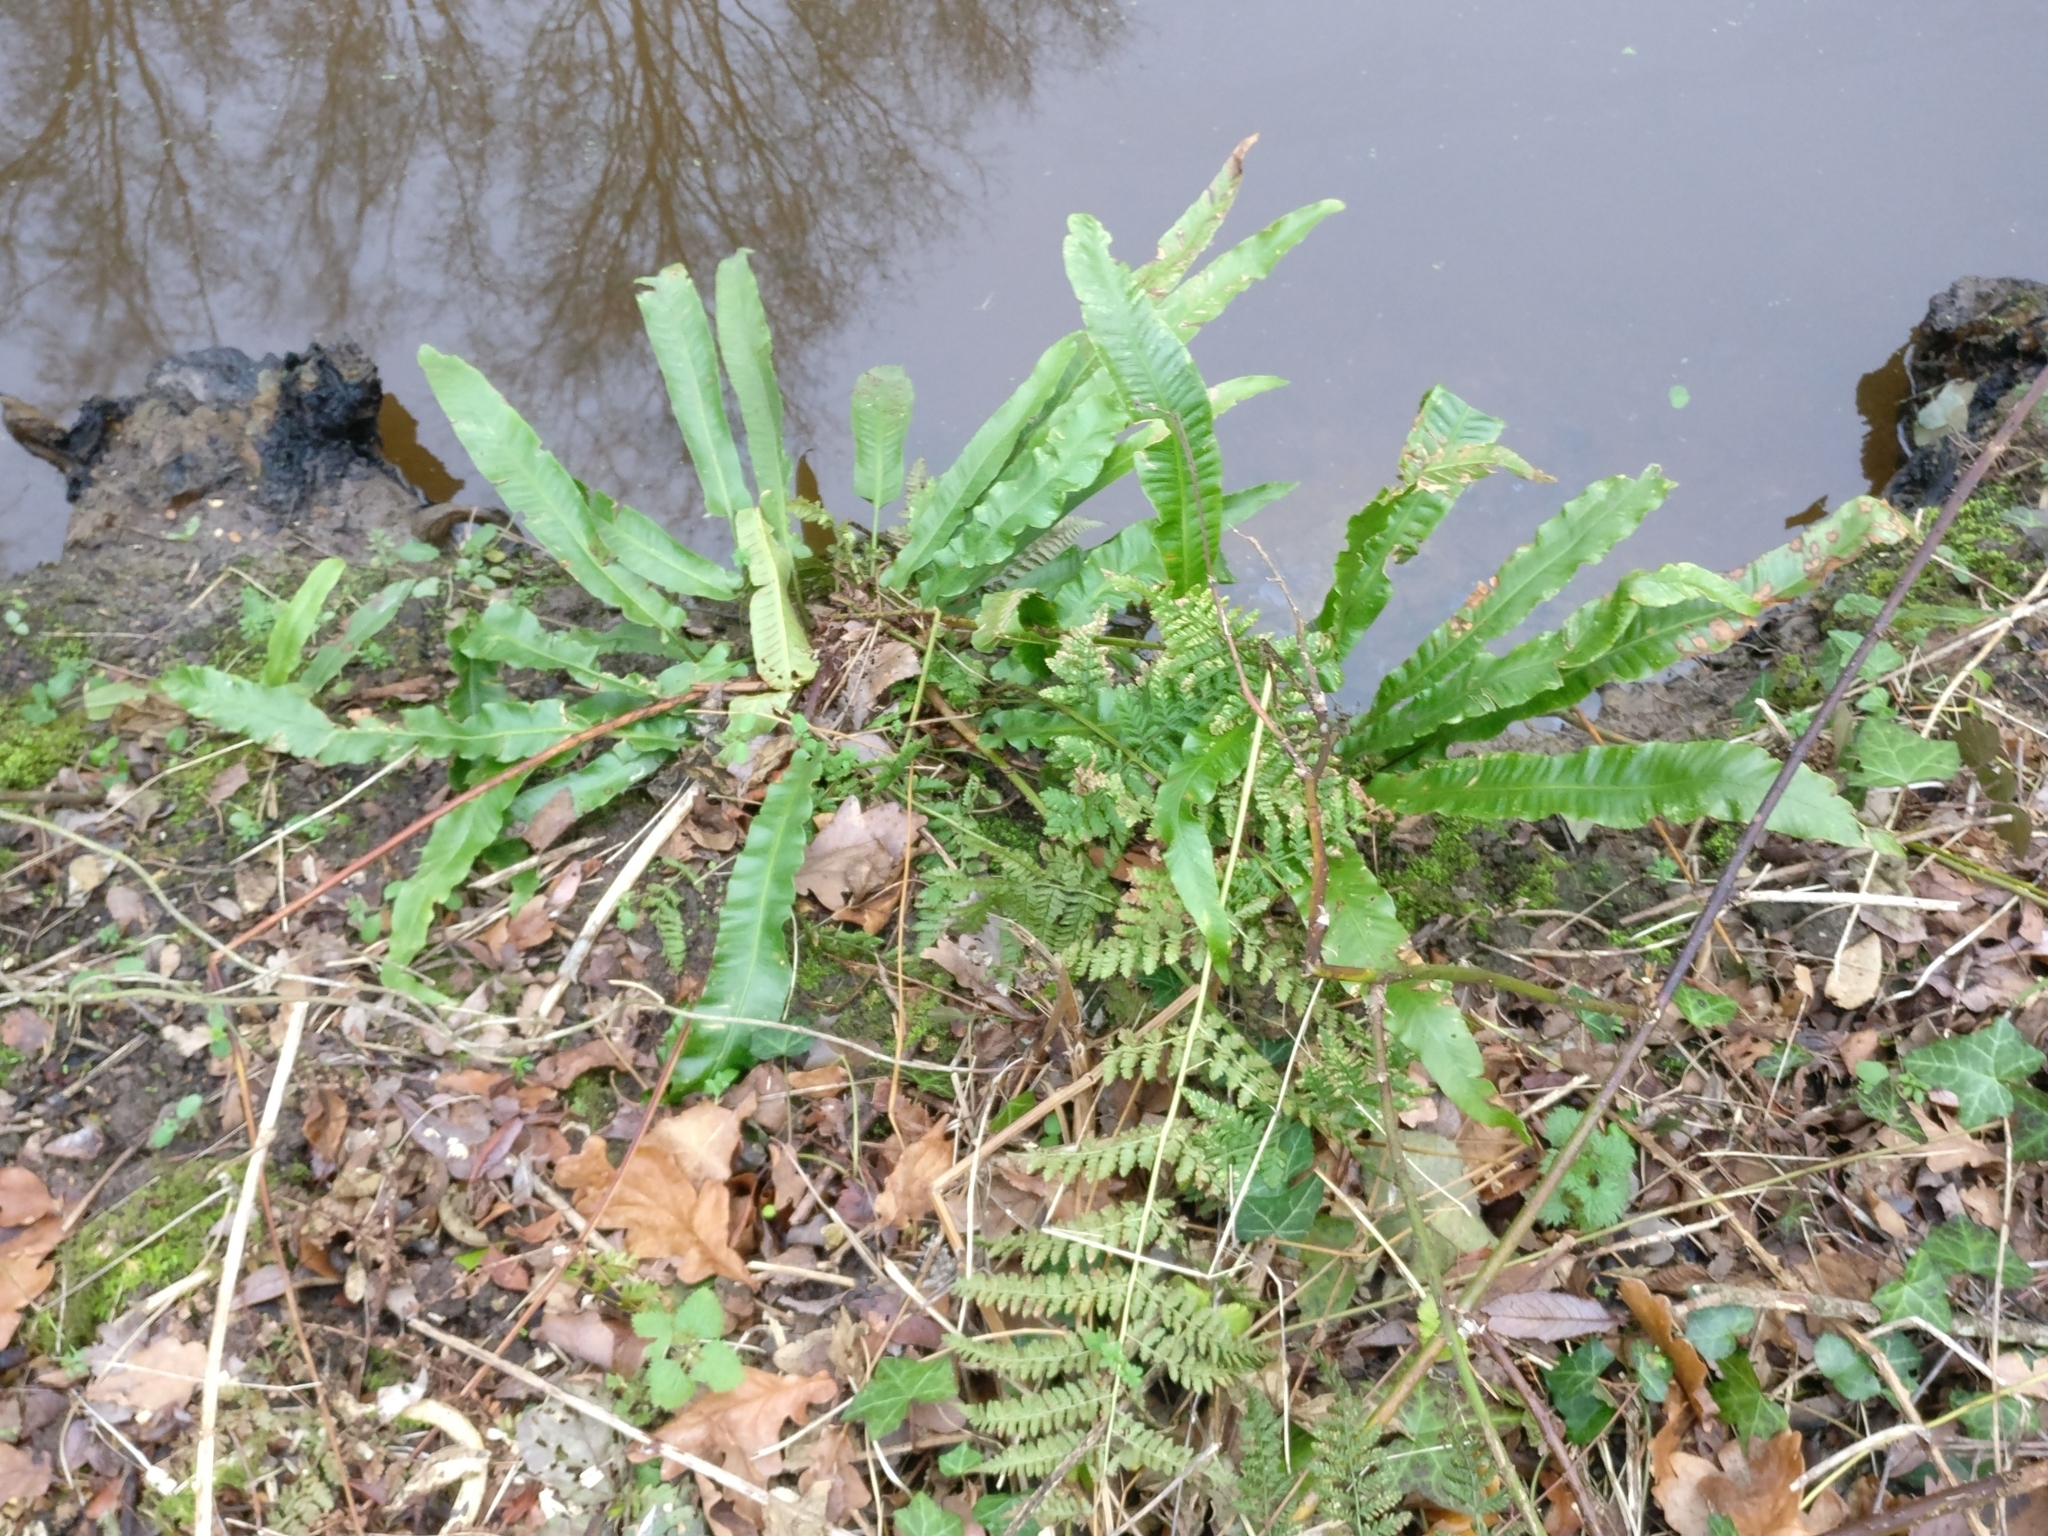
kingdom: Plantae
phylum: Tracheophyta
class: Polypodiopsida
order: Polypodiales
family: Aspleniaceae
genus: Asplenium
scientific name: Asplenium scolopendrium
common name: Hart's-tongue fern
